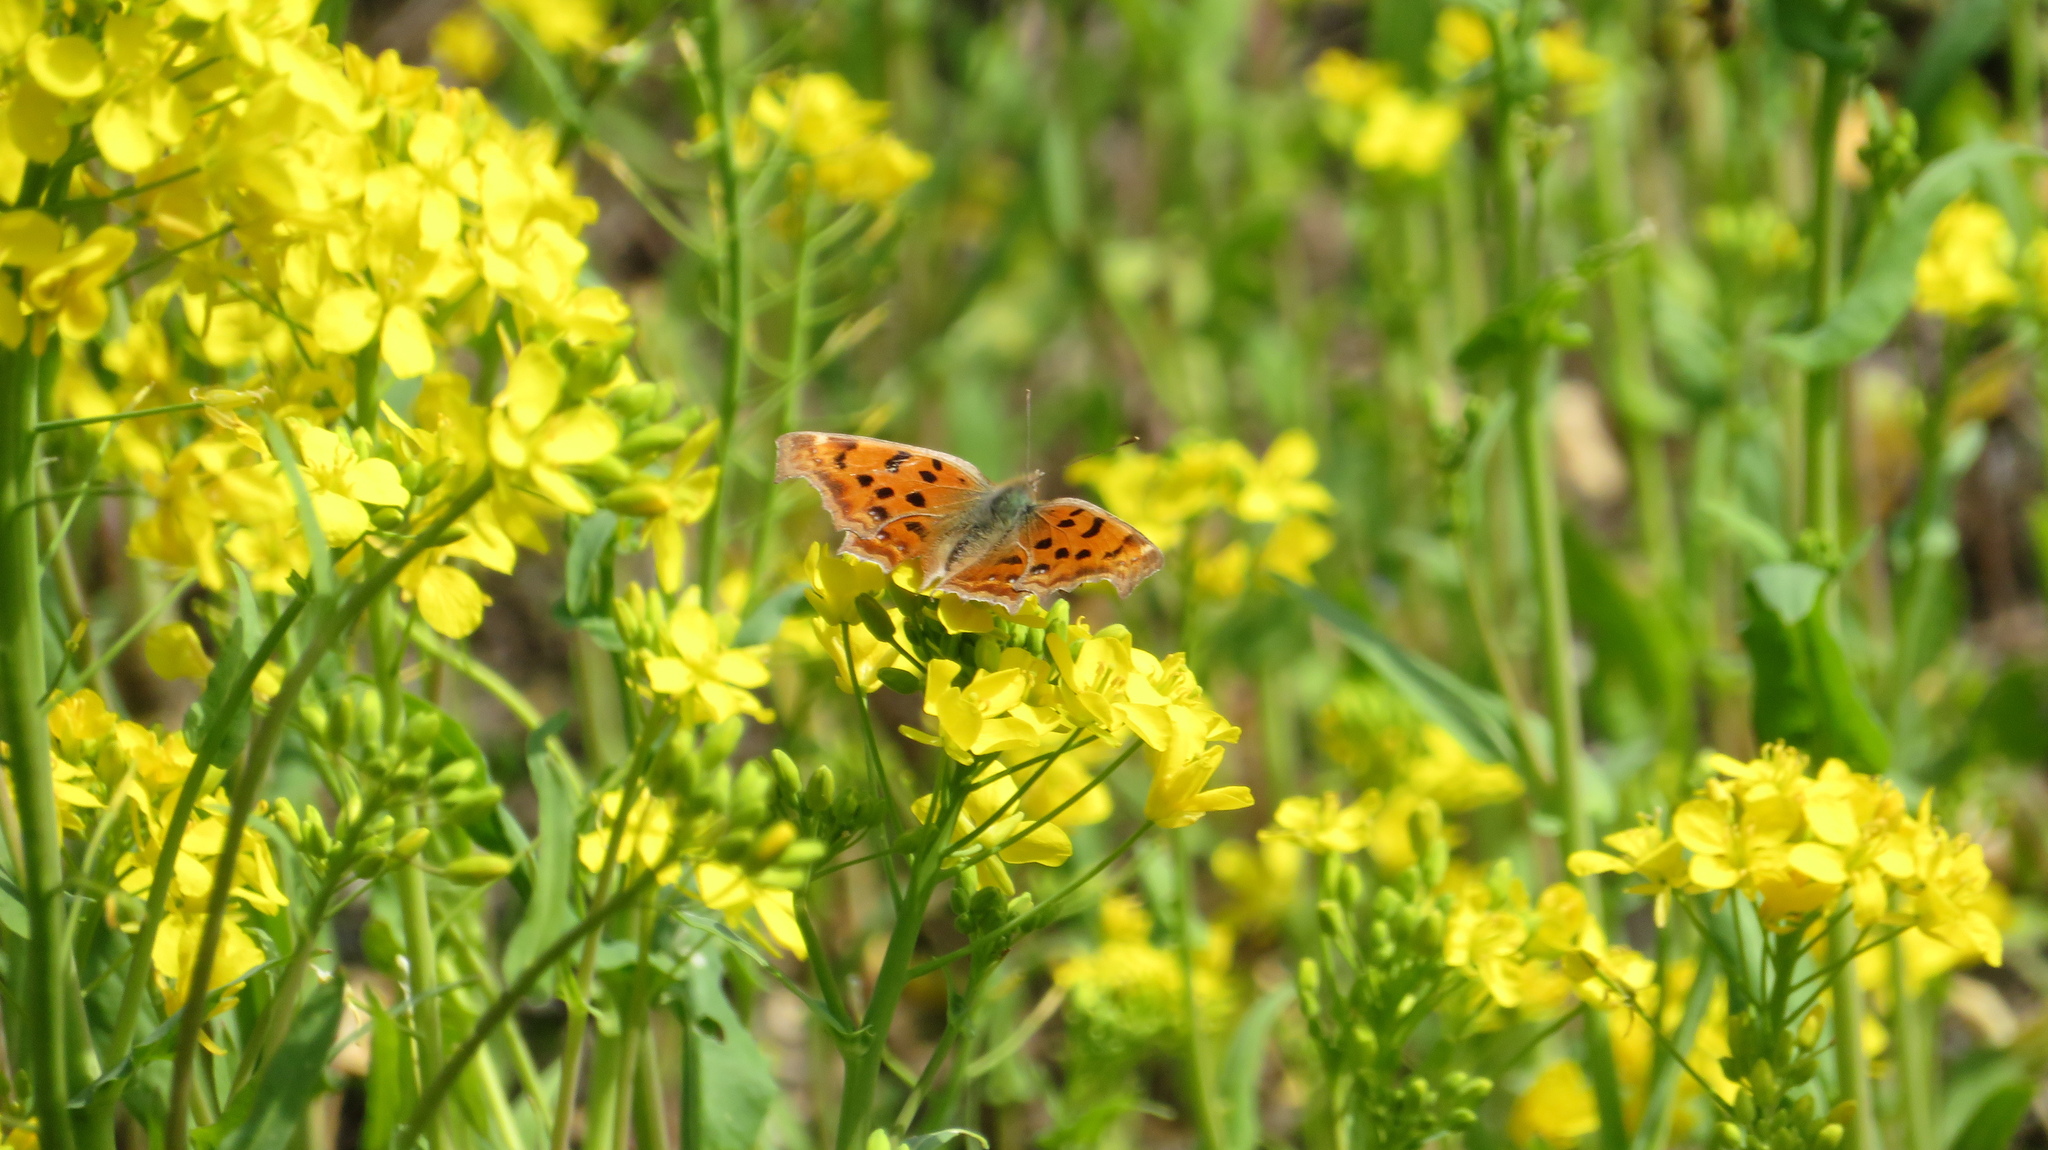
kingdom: Animalia
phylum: Arthropoda
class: Insecta
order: Lepidoptera
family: Nymphalidae
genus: Polygonia
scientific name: Polygonia c-aureum
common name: Asian comma
